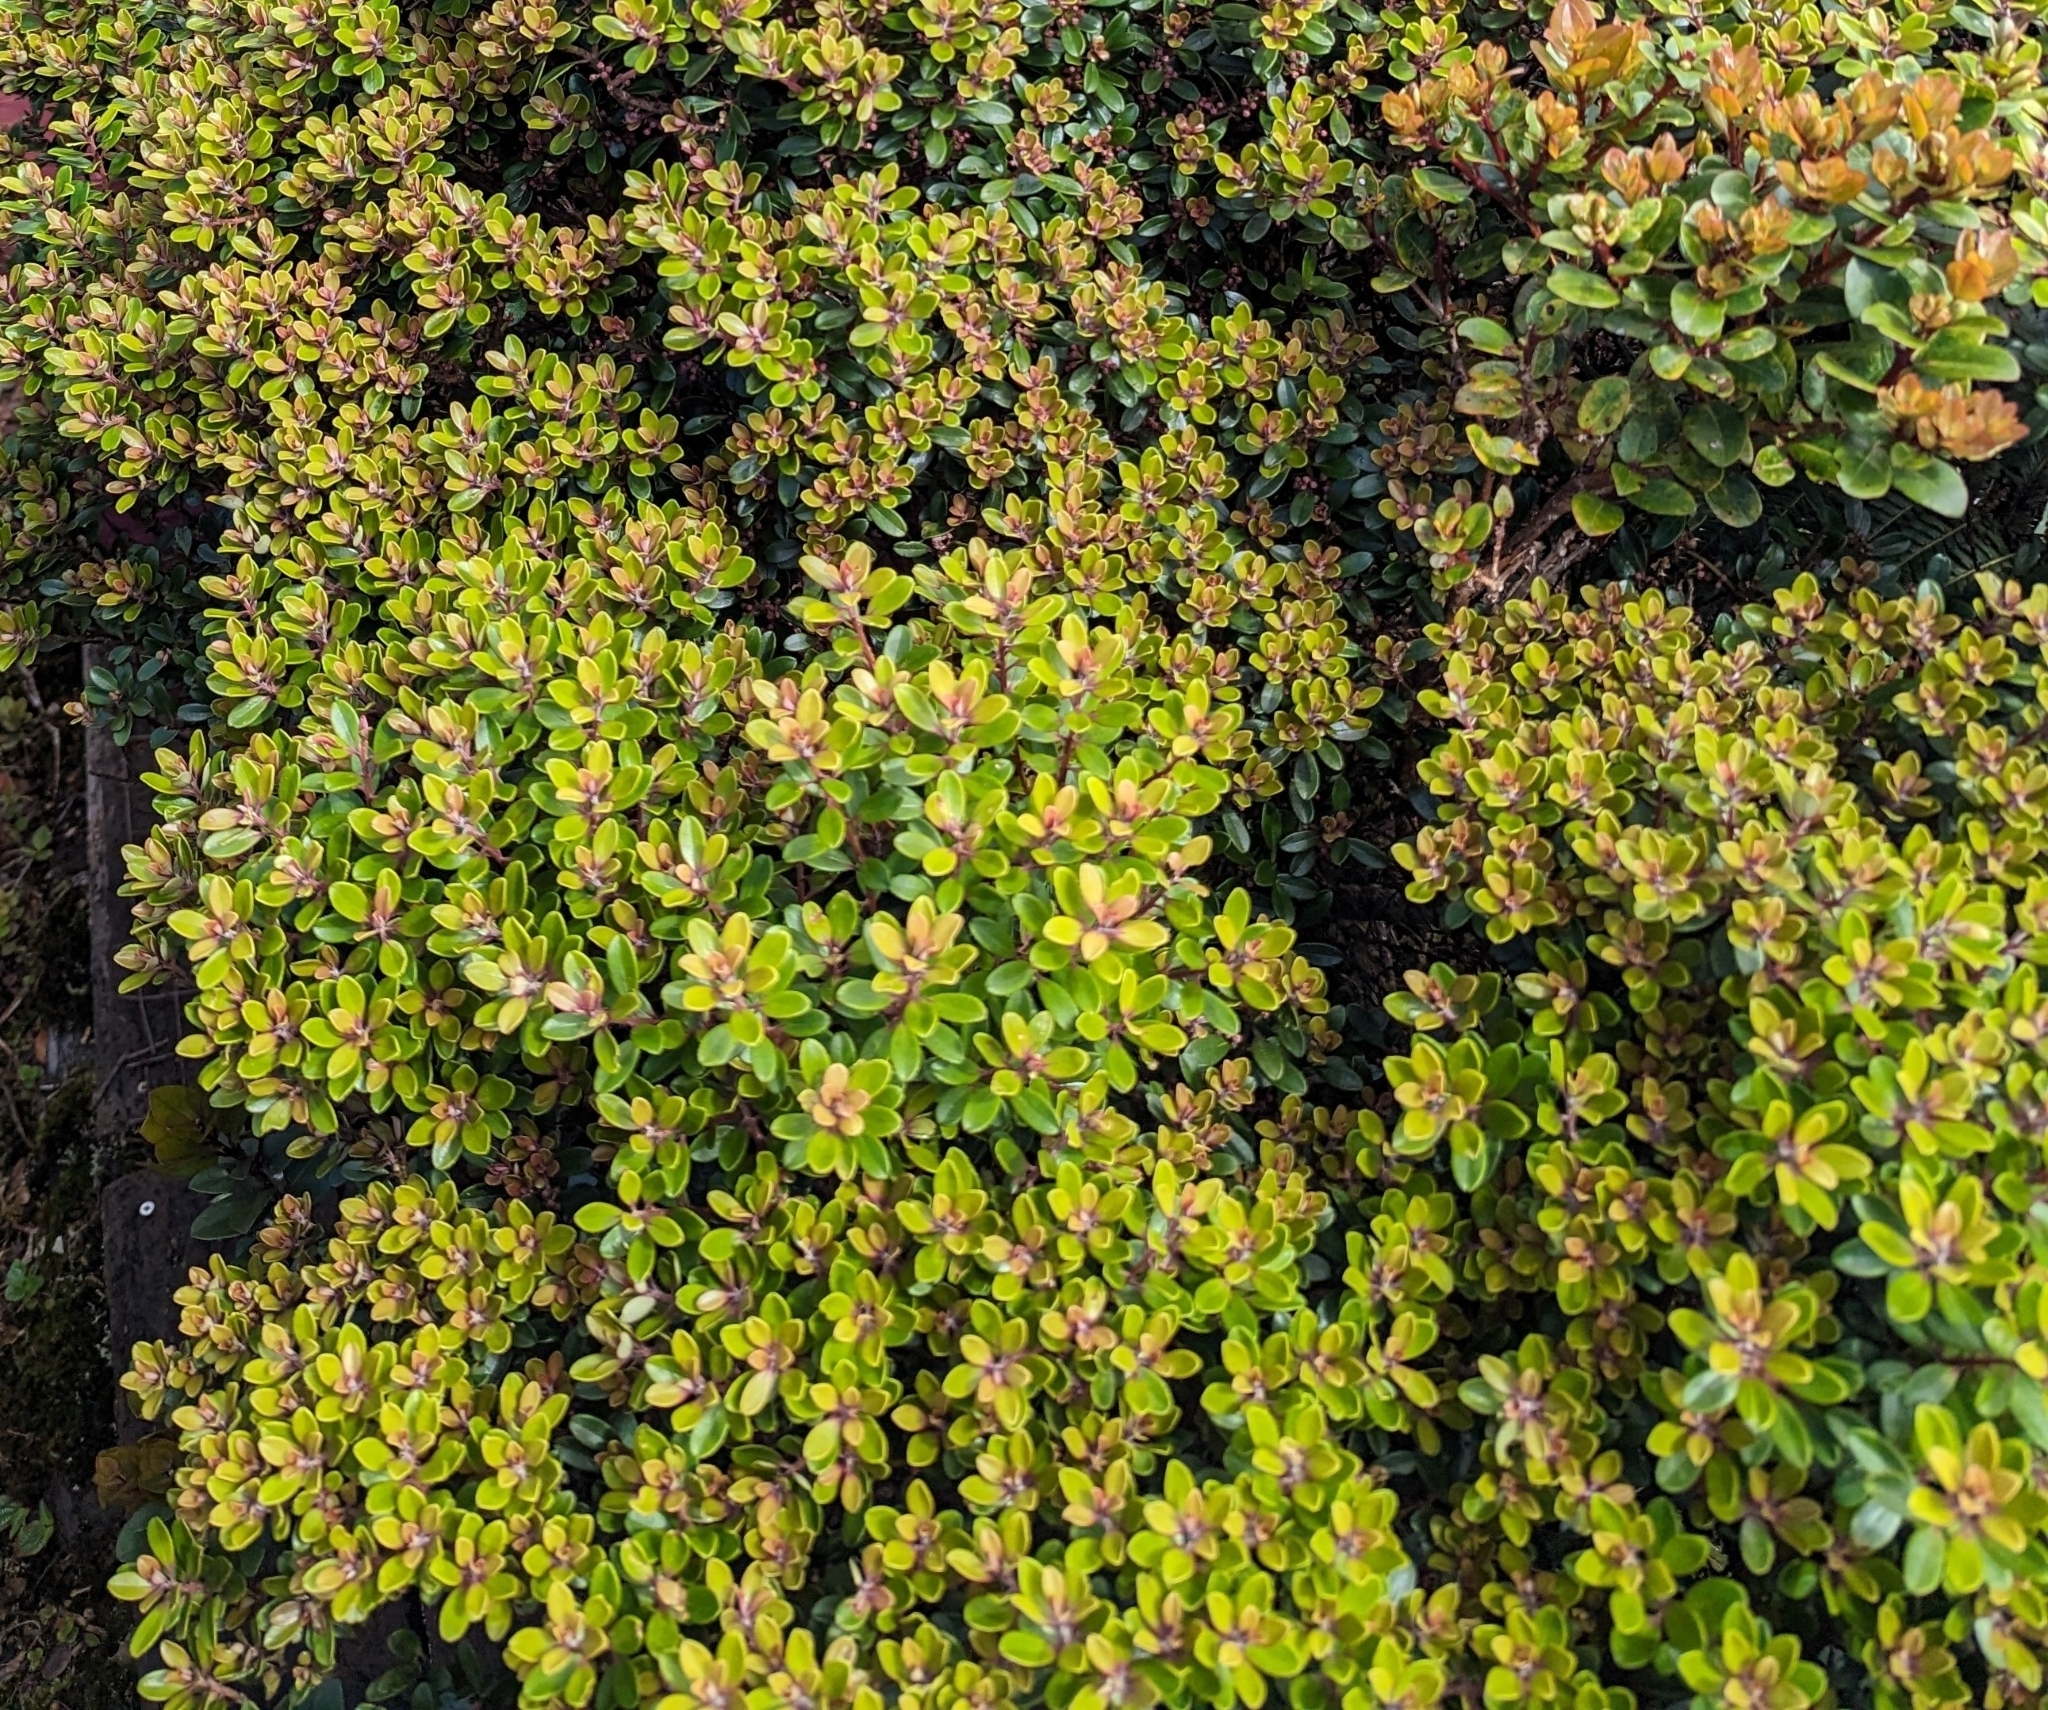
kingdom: Plantae
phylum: Tracheophyta
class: Magnoliopsida
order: Ericales
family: Primulaceae
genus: Myrsine
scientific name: Myrsine sandwicensis
